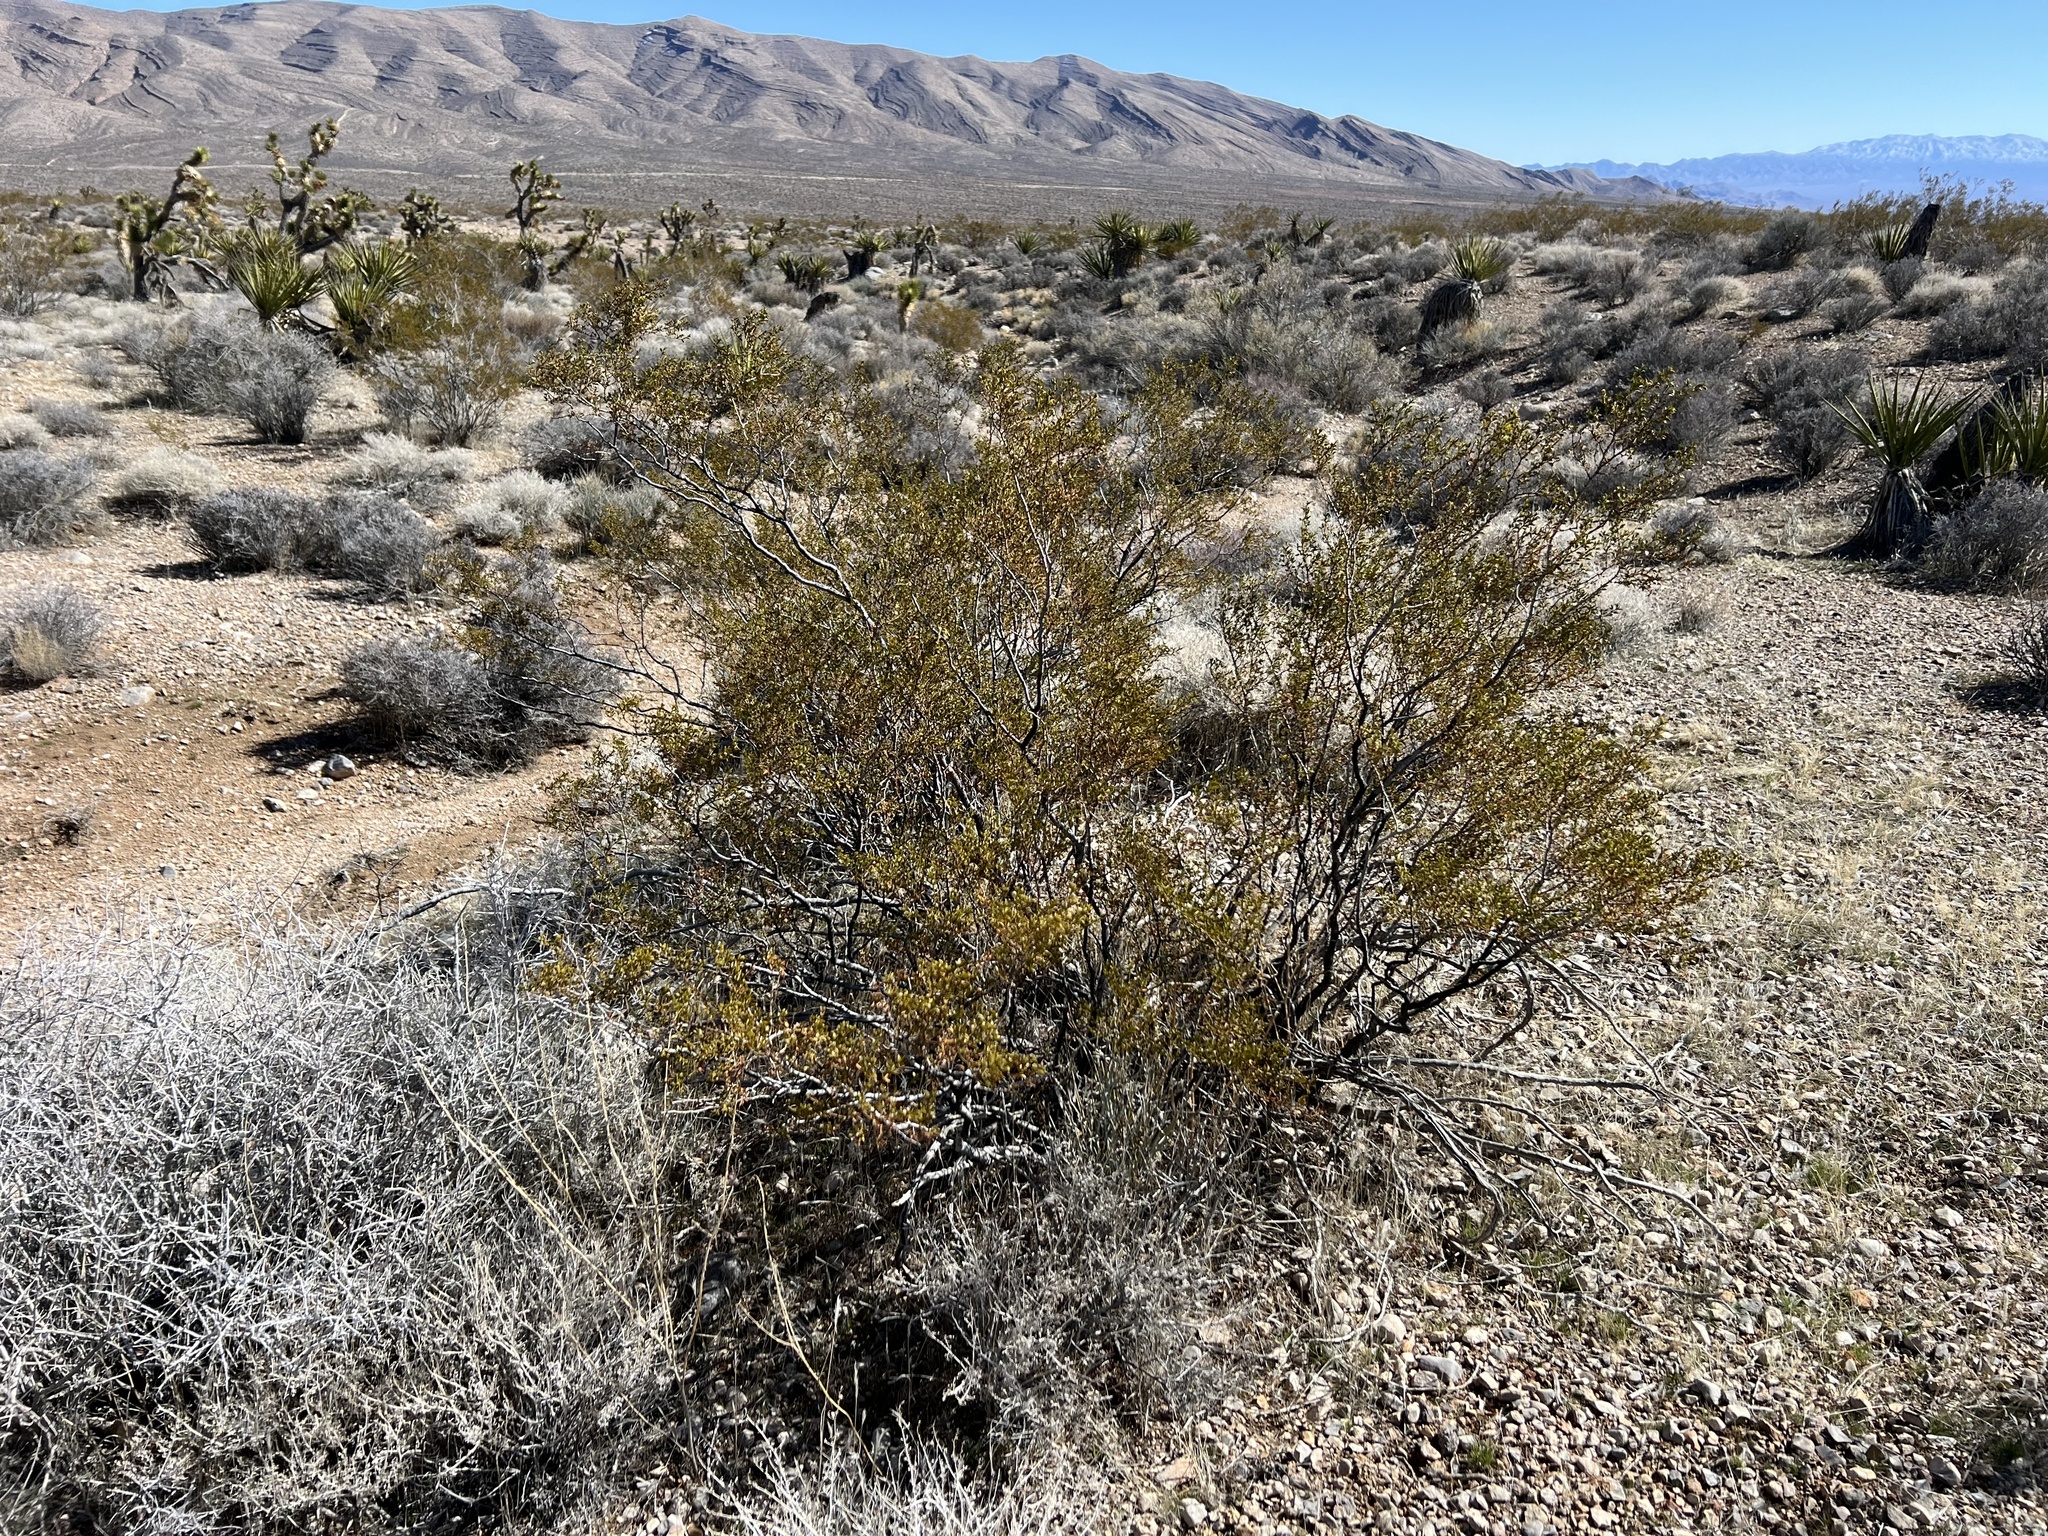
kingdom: Plantae
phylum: Tracheophyta
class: Magnoliopsida
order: Zygophyllales
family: Zygophyllaceae
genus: Larrea
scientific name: Larrea tridentata
